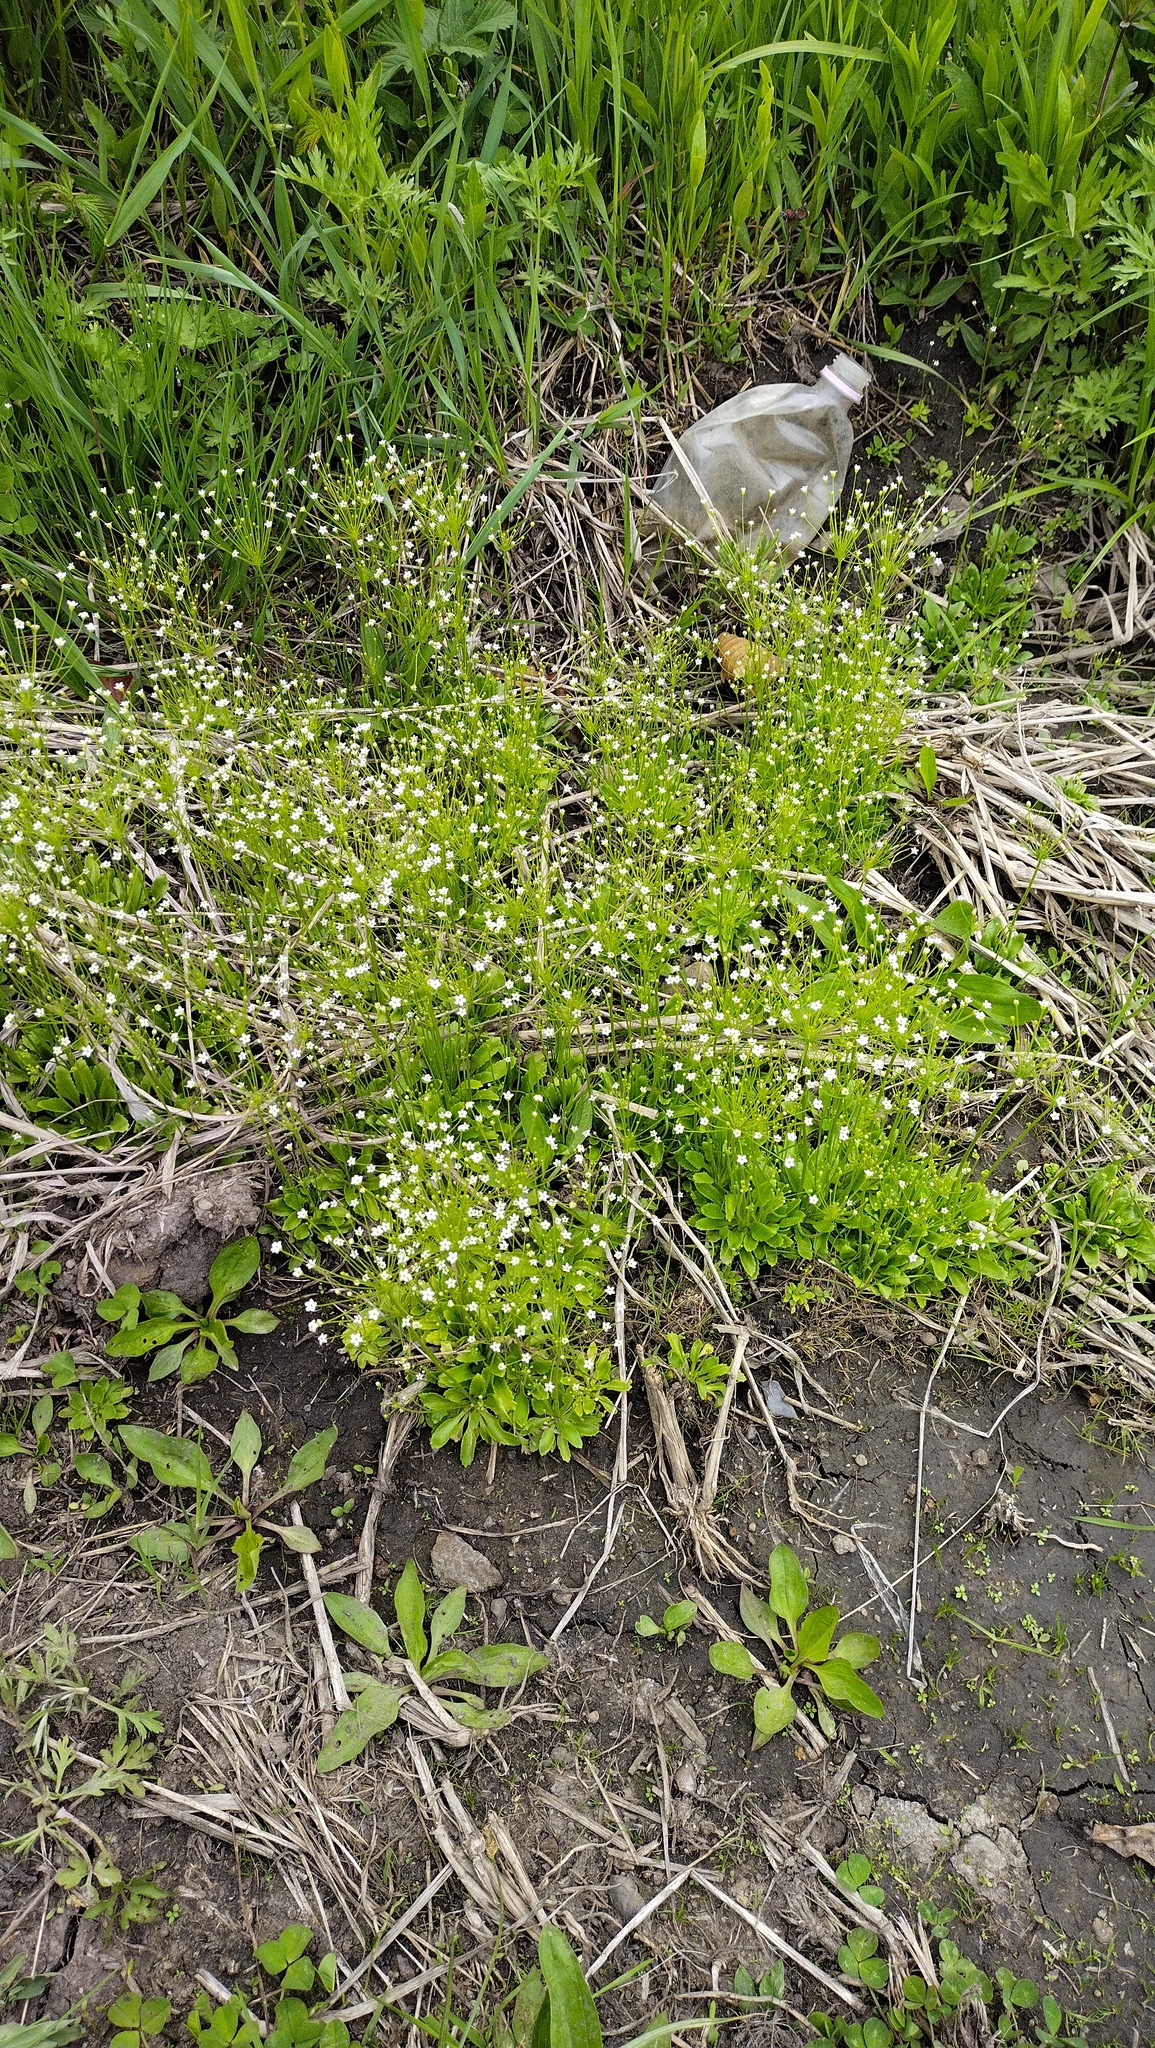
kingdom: Plantae
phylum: Tracheophyta
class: Magnoliopsida
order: Ericales
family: Primulaceae
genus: Androsace
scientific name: Androsace filiformis
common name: Filiform rock jasmine
